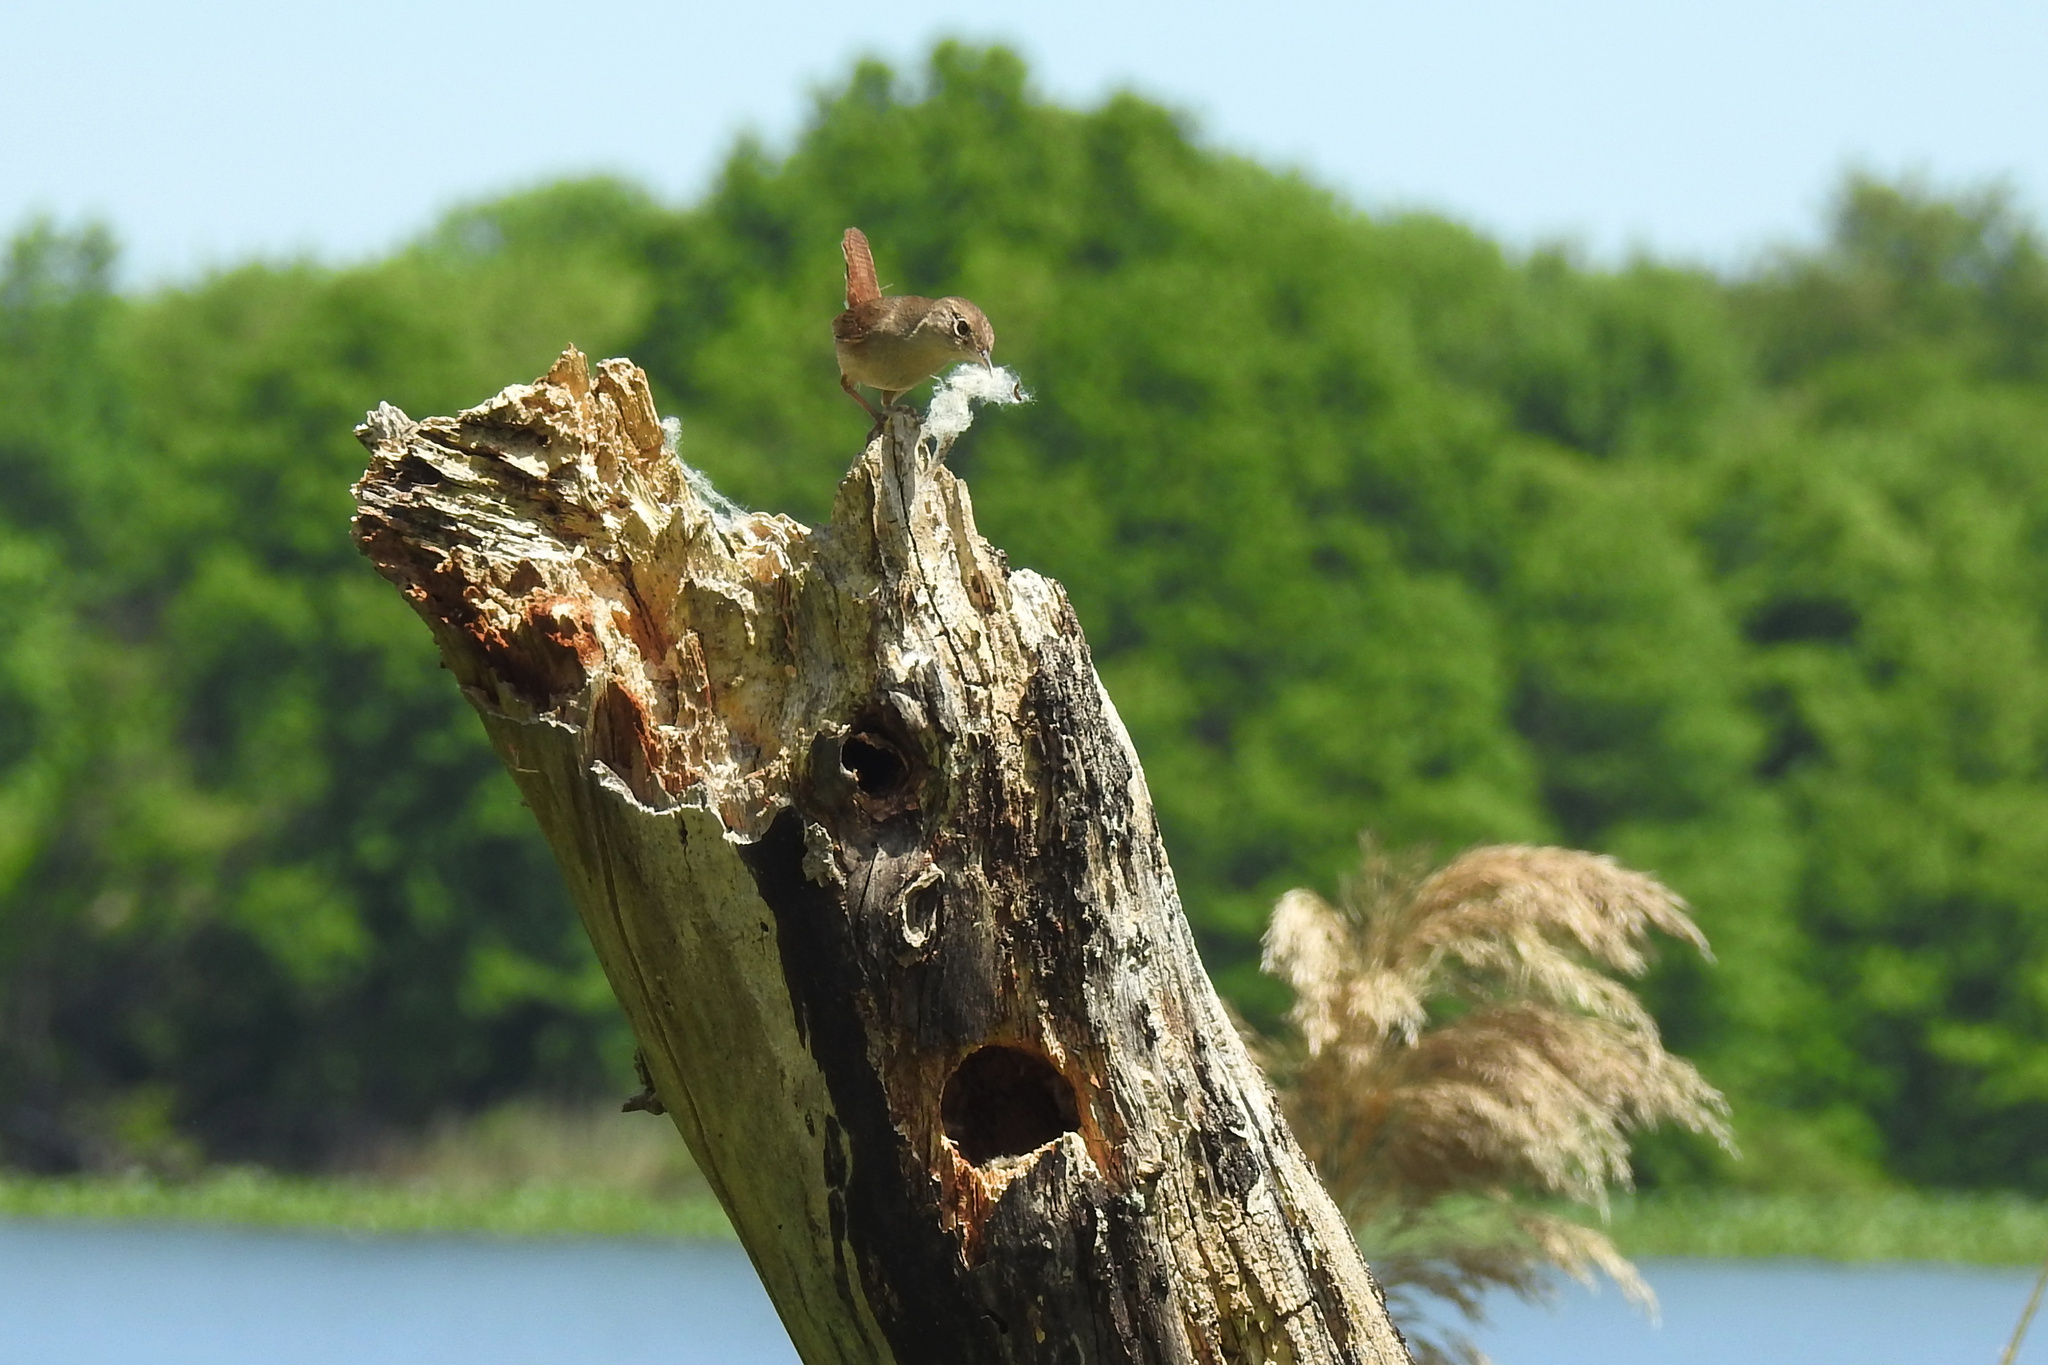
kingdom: Animalia
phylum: Chordata
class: Aves
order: Passeriformes
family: Troglodytidae
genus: Troglodytes
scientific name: Troglodytes aedon
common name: House wren
